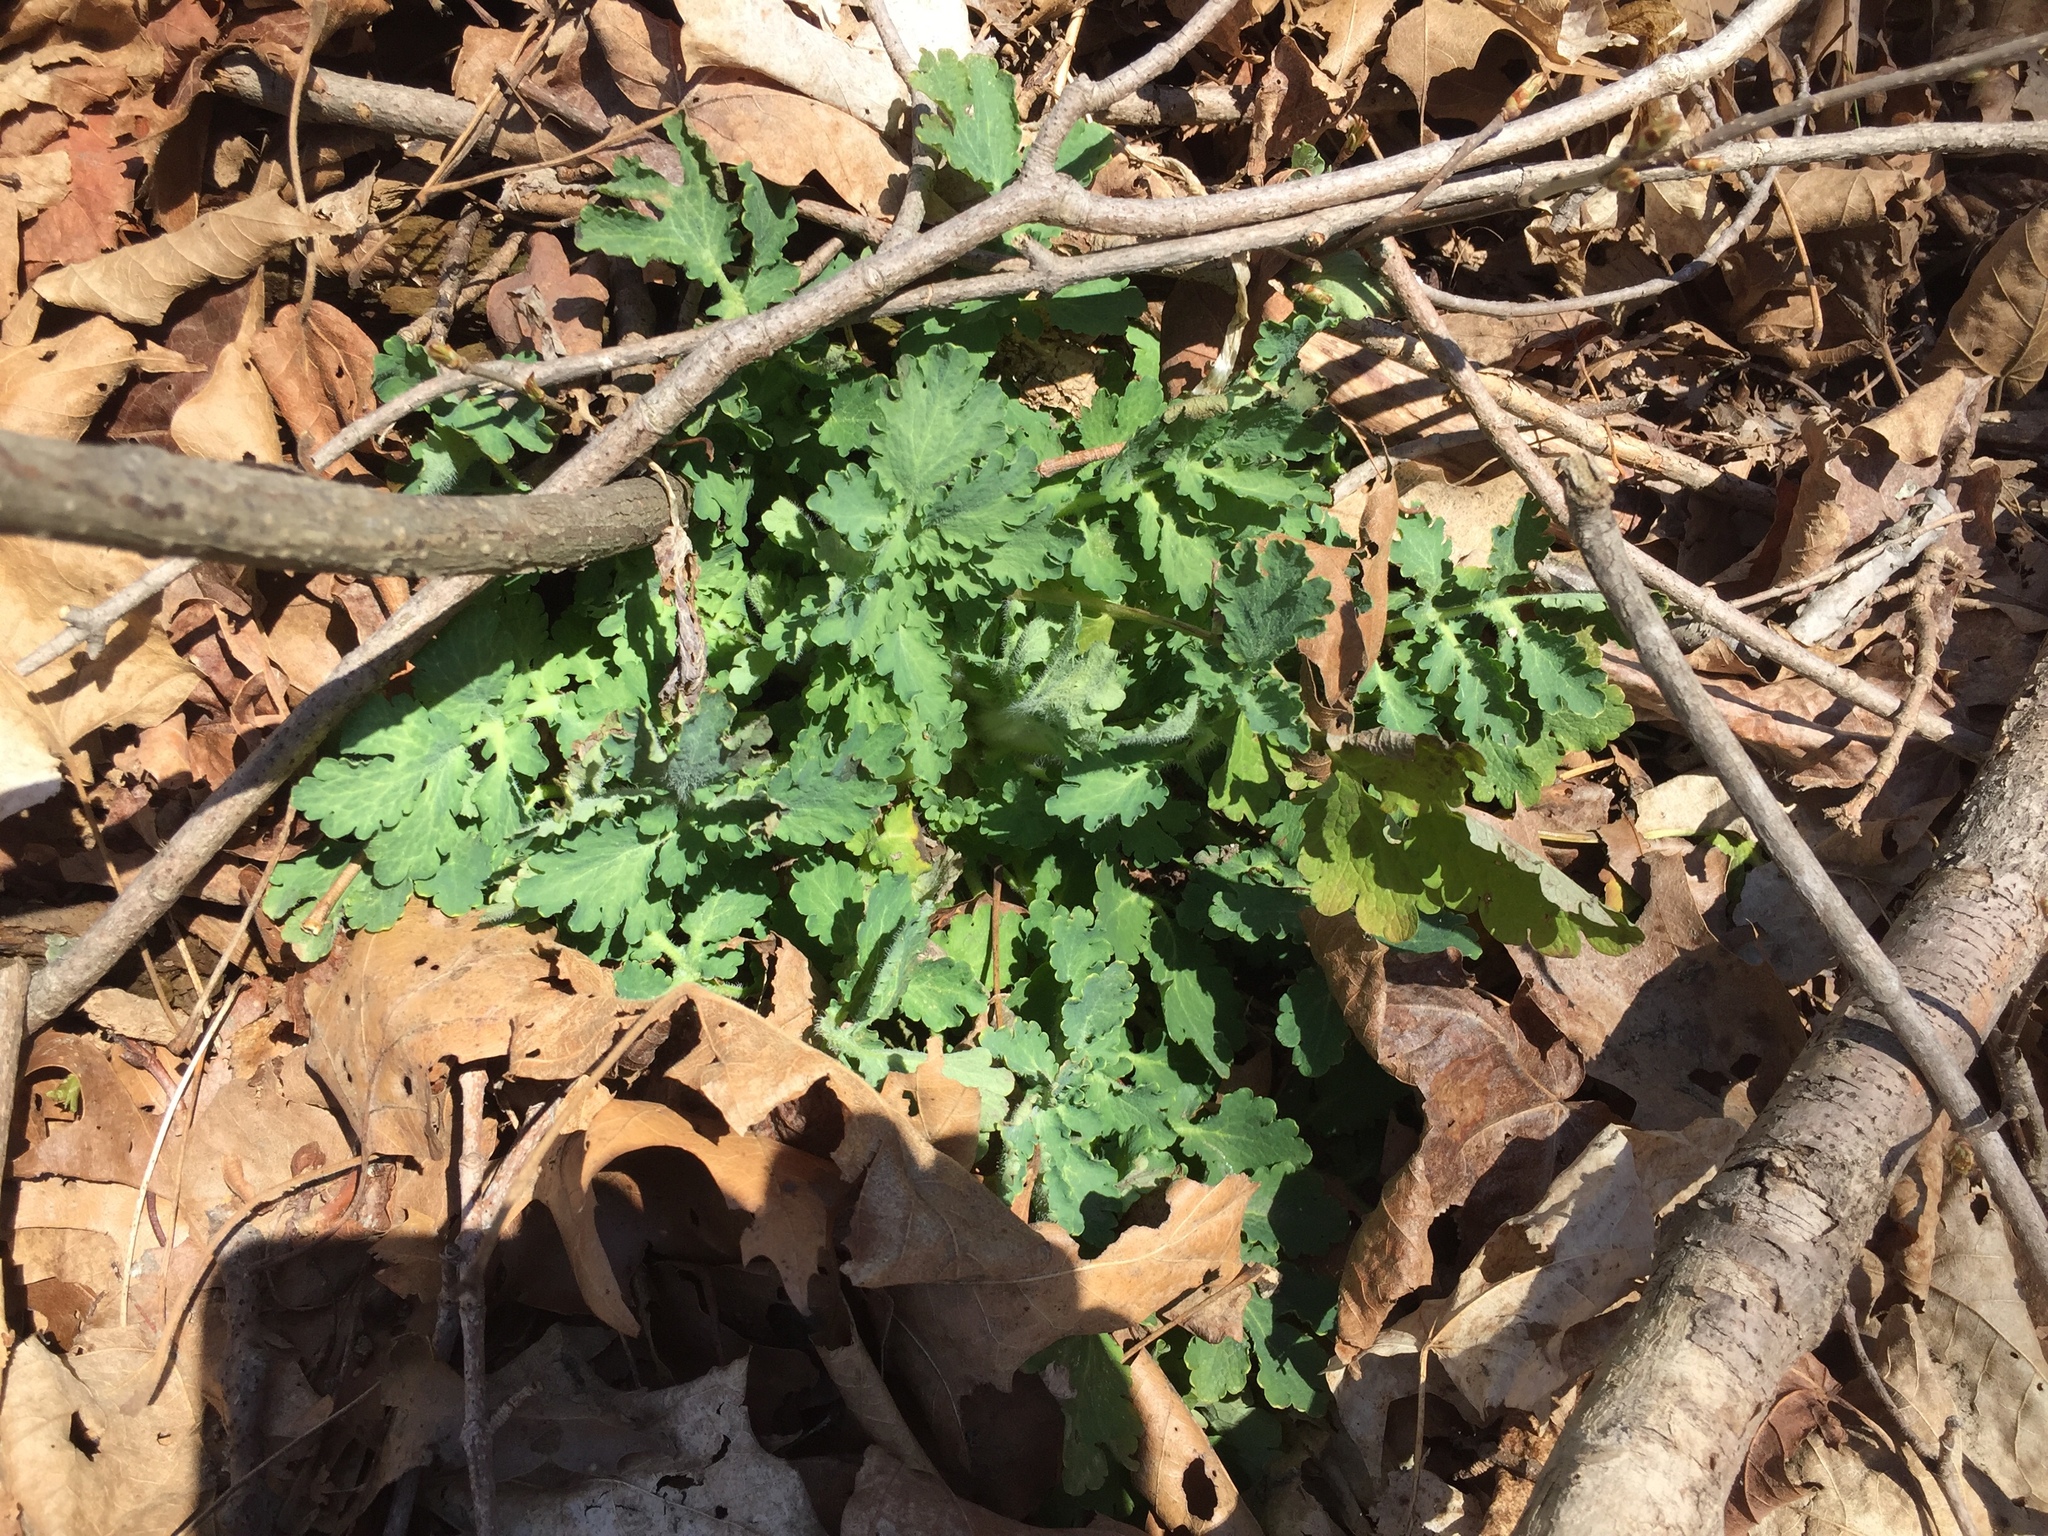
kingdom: Plantae
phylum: Tracheophyta
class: Magnoliopsida
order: Ranunculales
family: Papaveraceae
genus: Chelidonium
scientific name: Chelidonium majus
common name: Greater celandine
